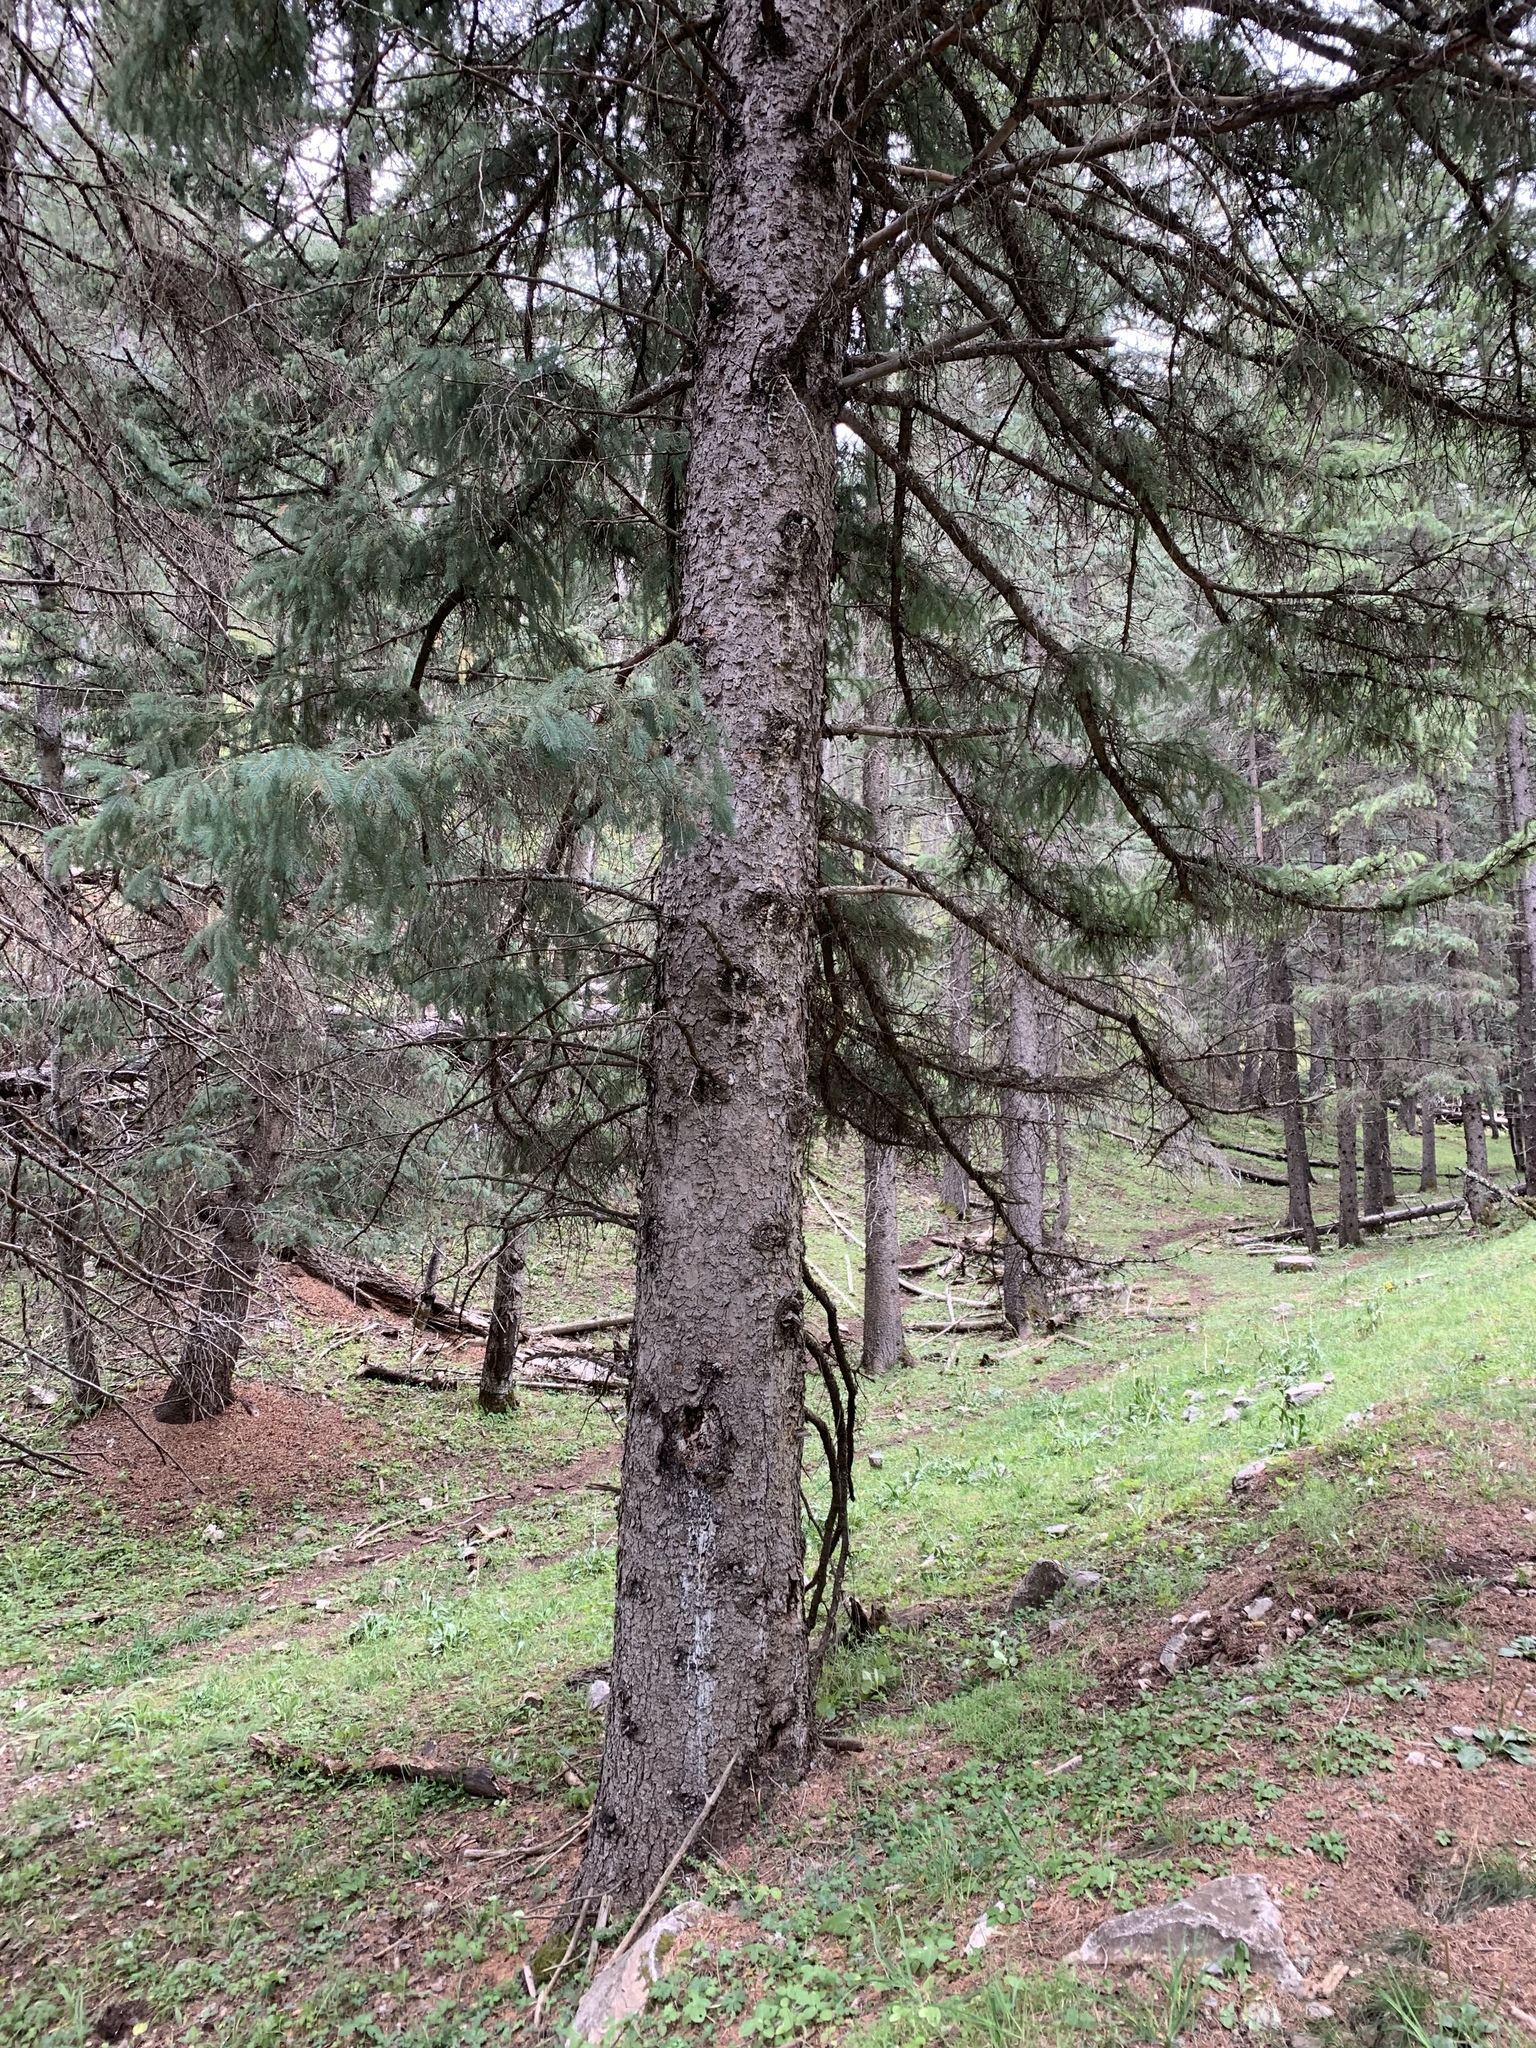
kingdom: Plantae
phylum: Tracheophyta
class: Pinopsida
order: Pinales
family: Pinaceae
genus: Picea
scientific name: Picea engelmannii
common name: Engelmann spruce
